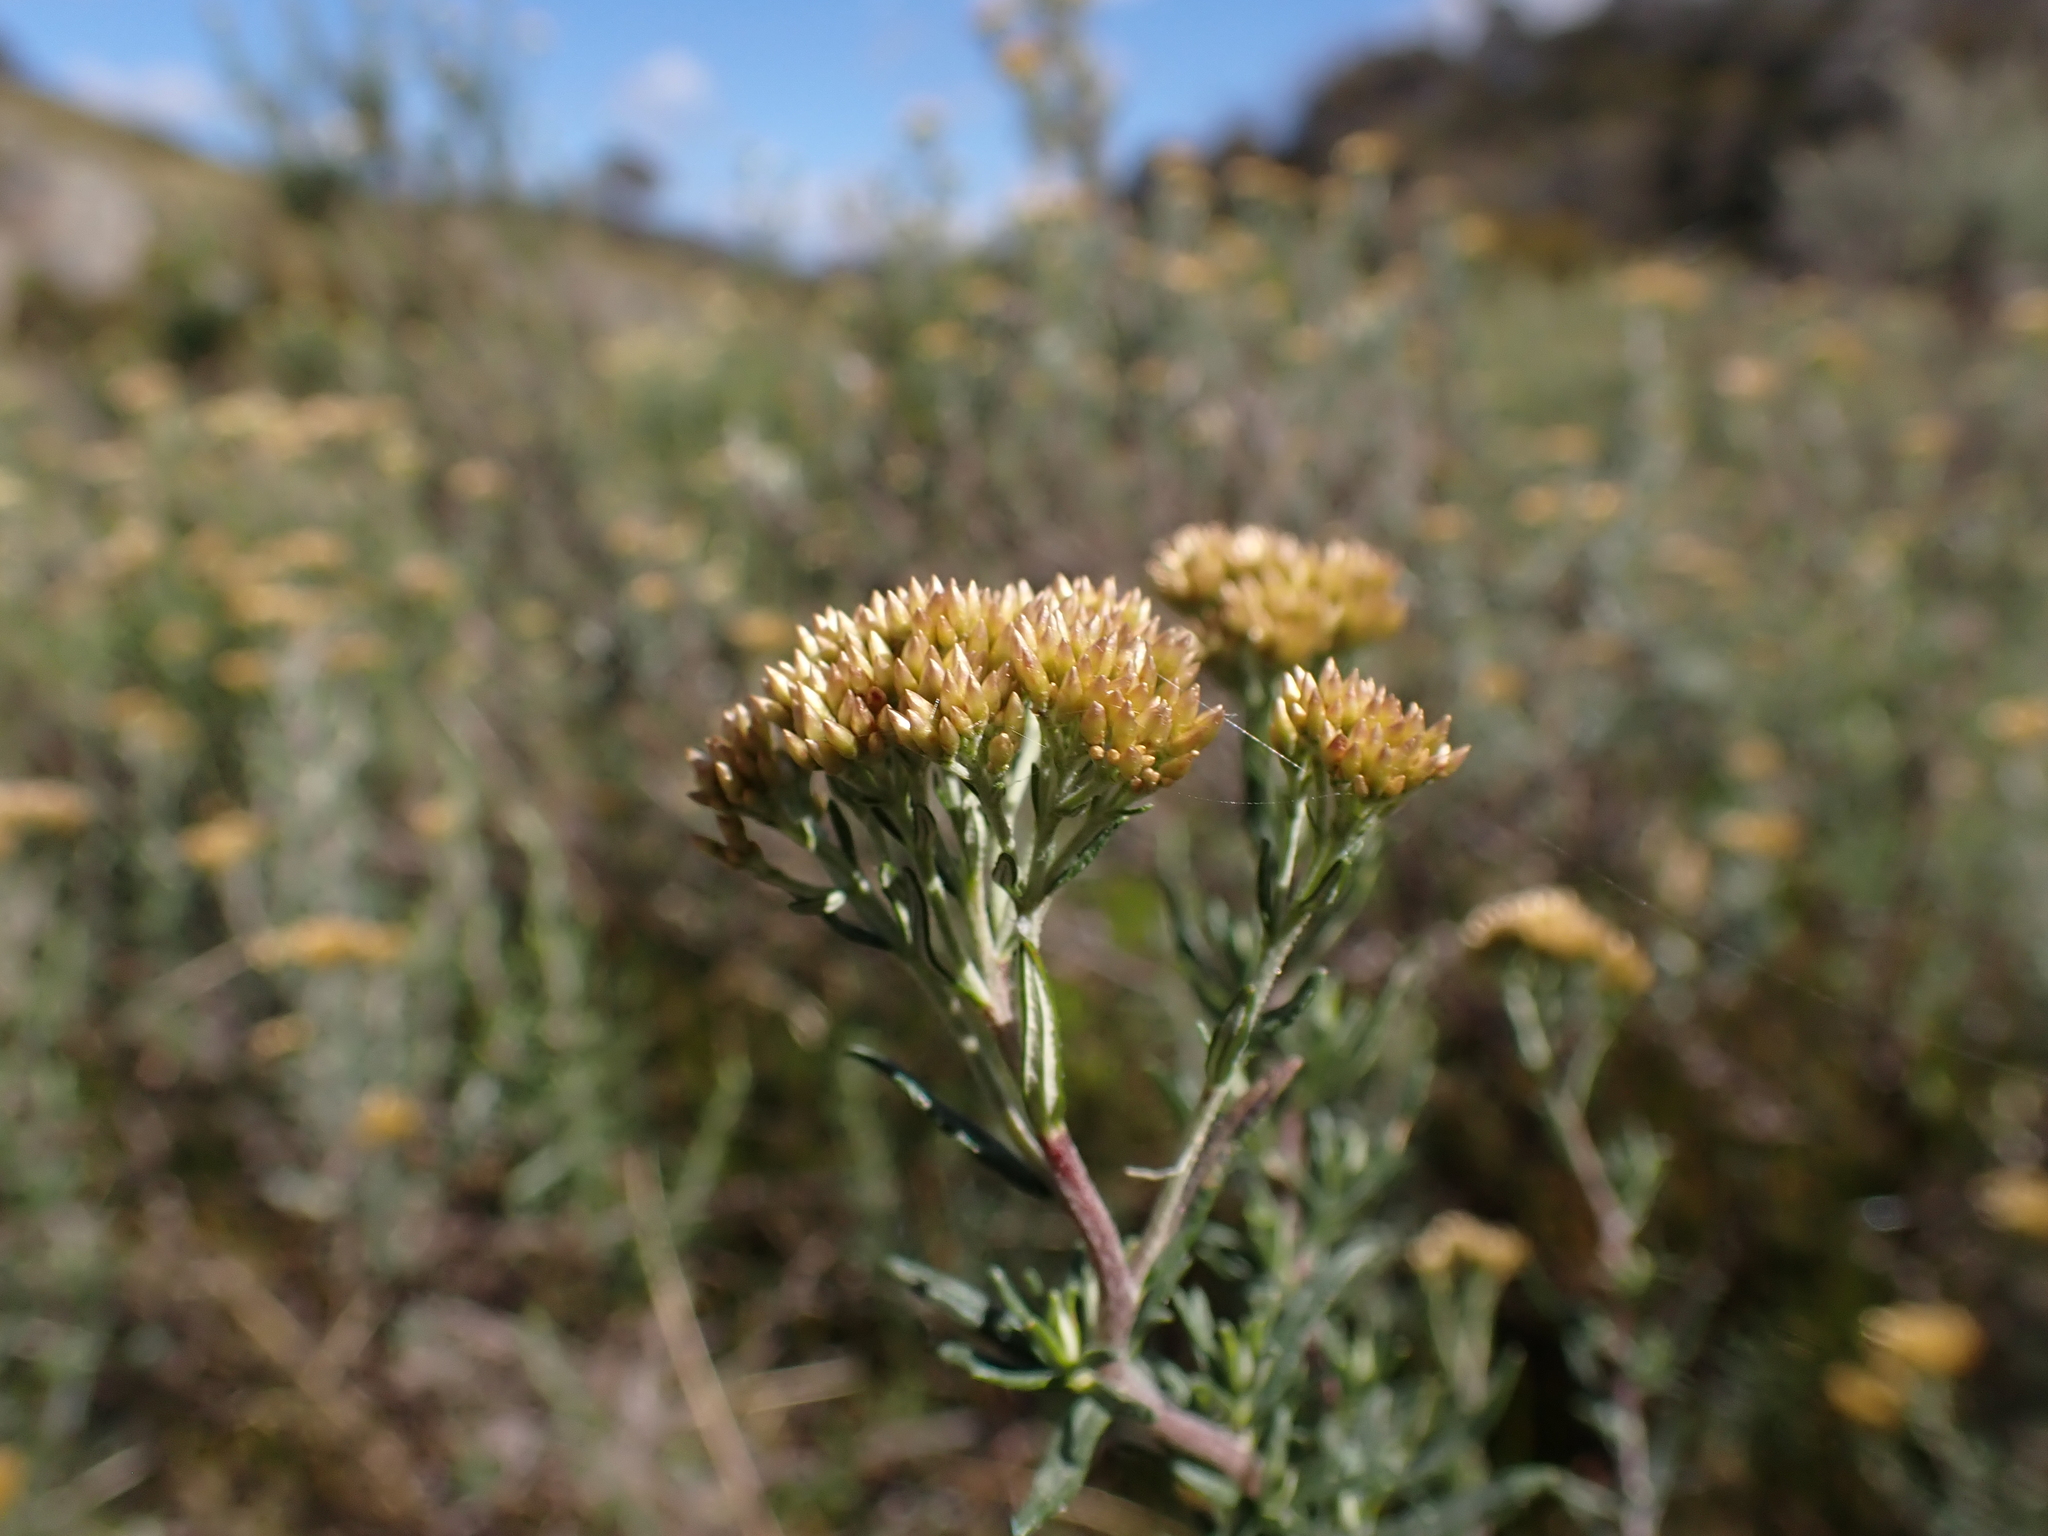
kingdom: Plantae
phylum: Tracheophyta
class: Magnoliopsida
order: Asterales
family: Asteraceae
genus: Cassinia
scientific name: Cassinia monticola
